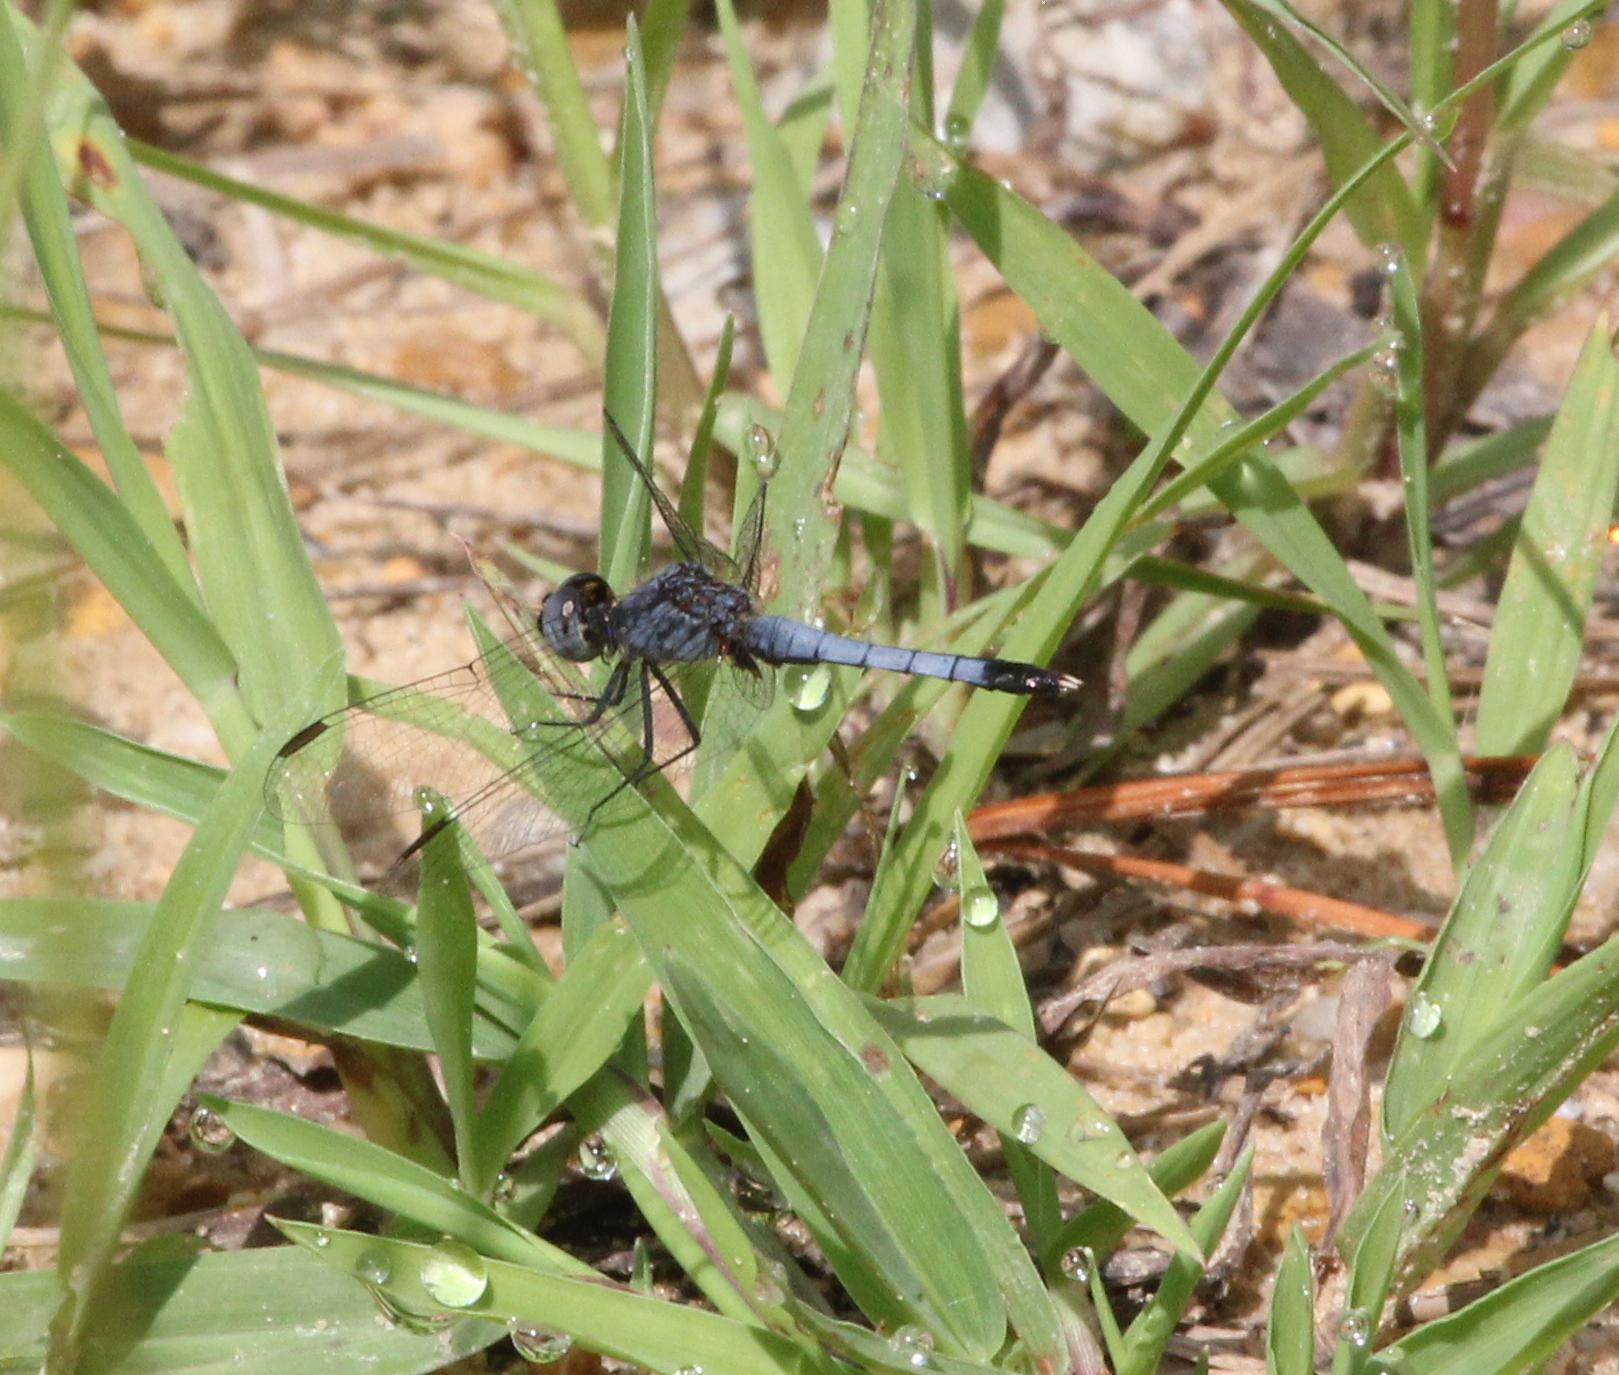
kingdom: Animalia
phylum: Arthropoda
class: Insecta
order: Odonata
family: Libellulidae
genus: Erythrodiplax
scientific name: Erythrodiplax minuscula
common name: Little blue dragonlet
